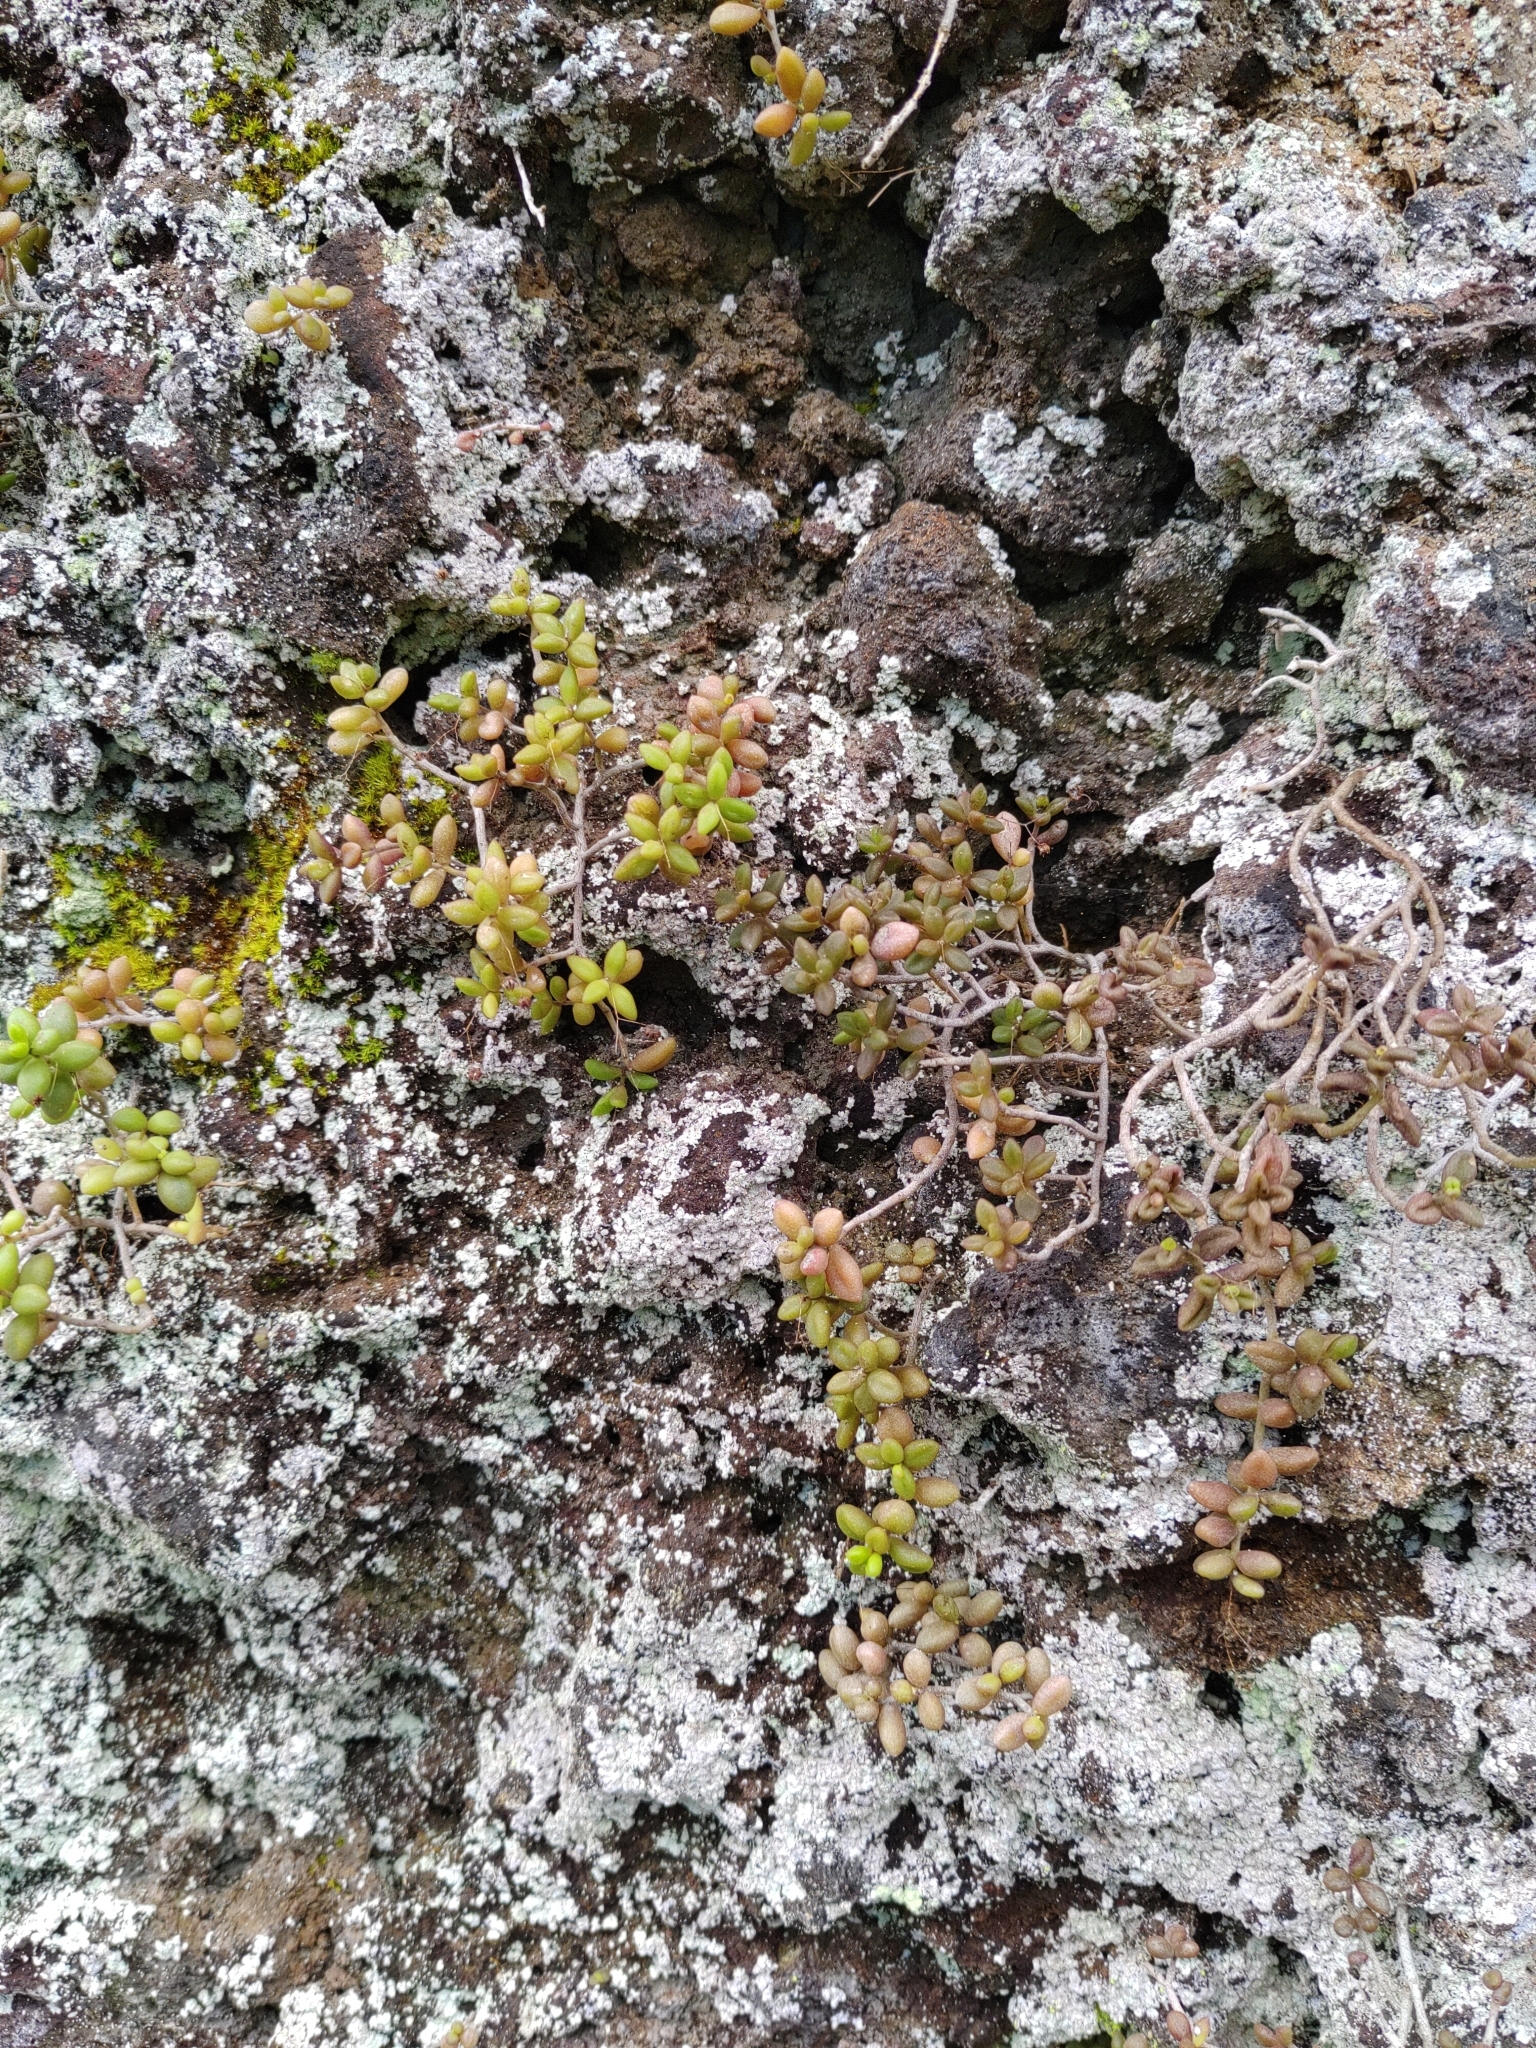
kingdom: Plantae
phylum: Tracheophyta
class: Magnoliopsida
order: Saxifragales
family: Crassulaceae
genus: Monanthes
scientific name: Monanthes laxiflora
